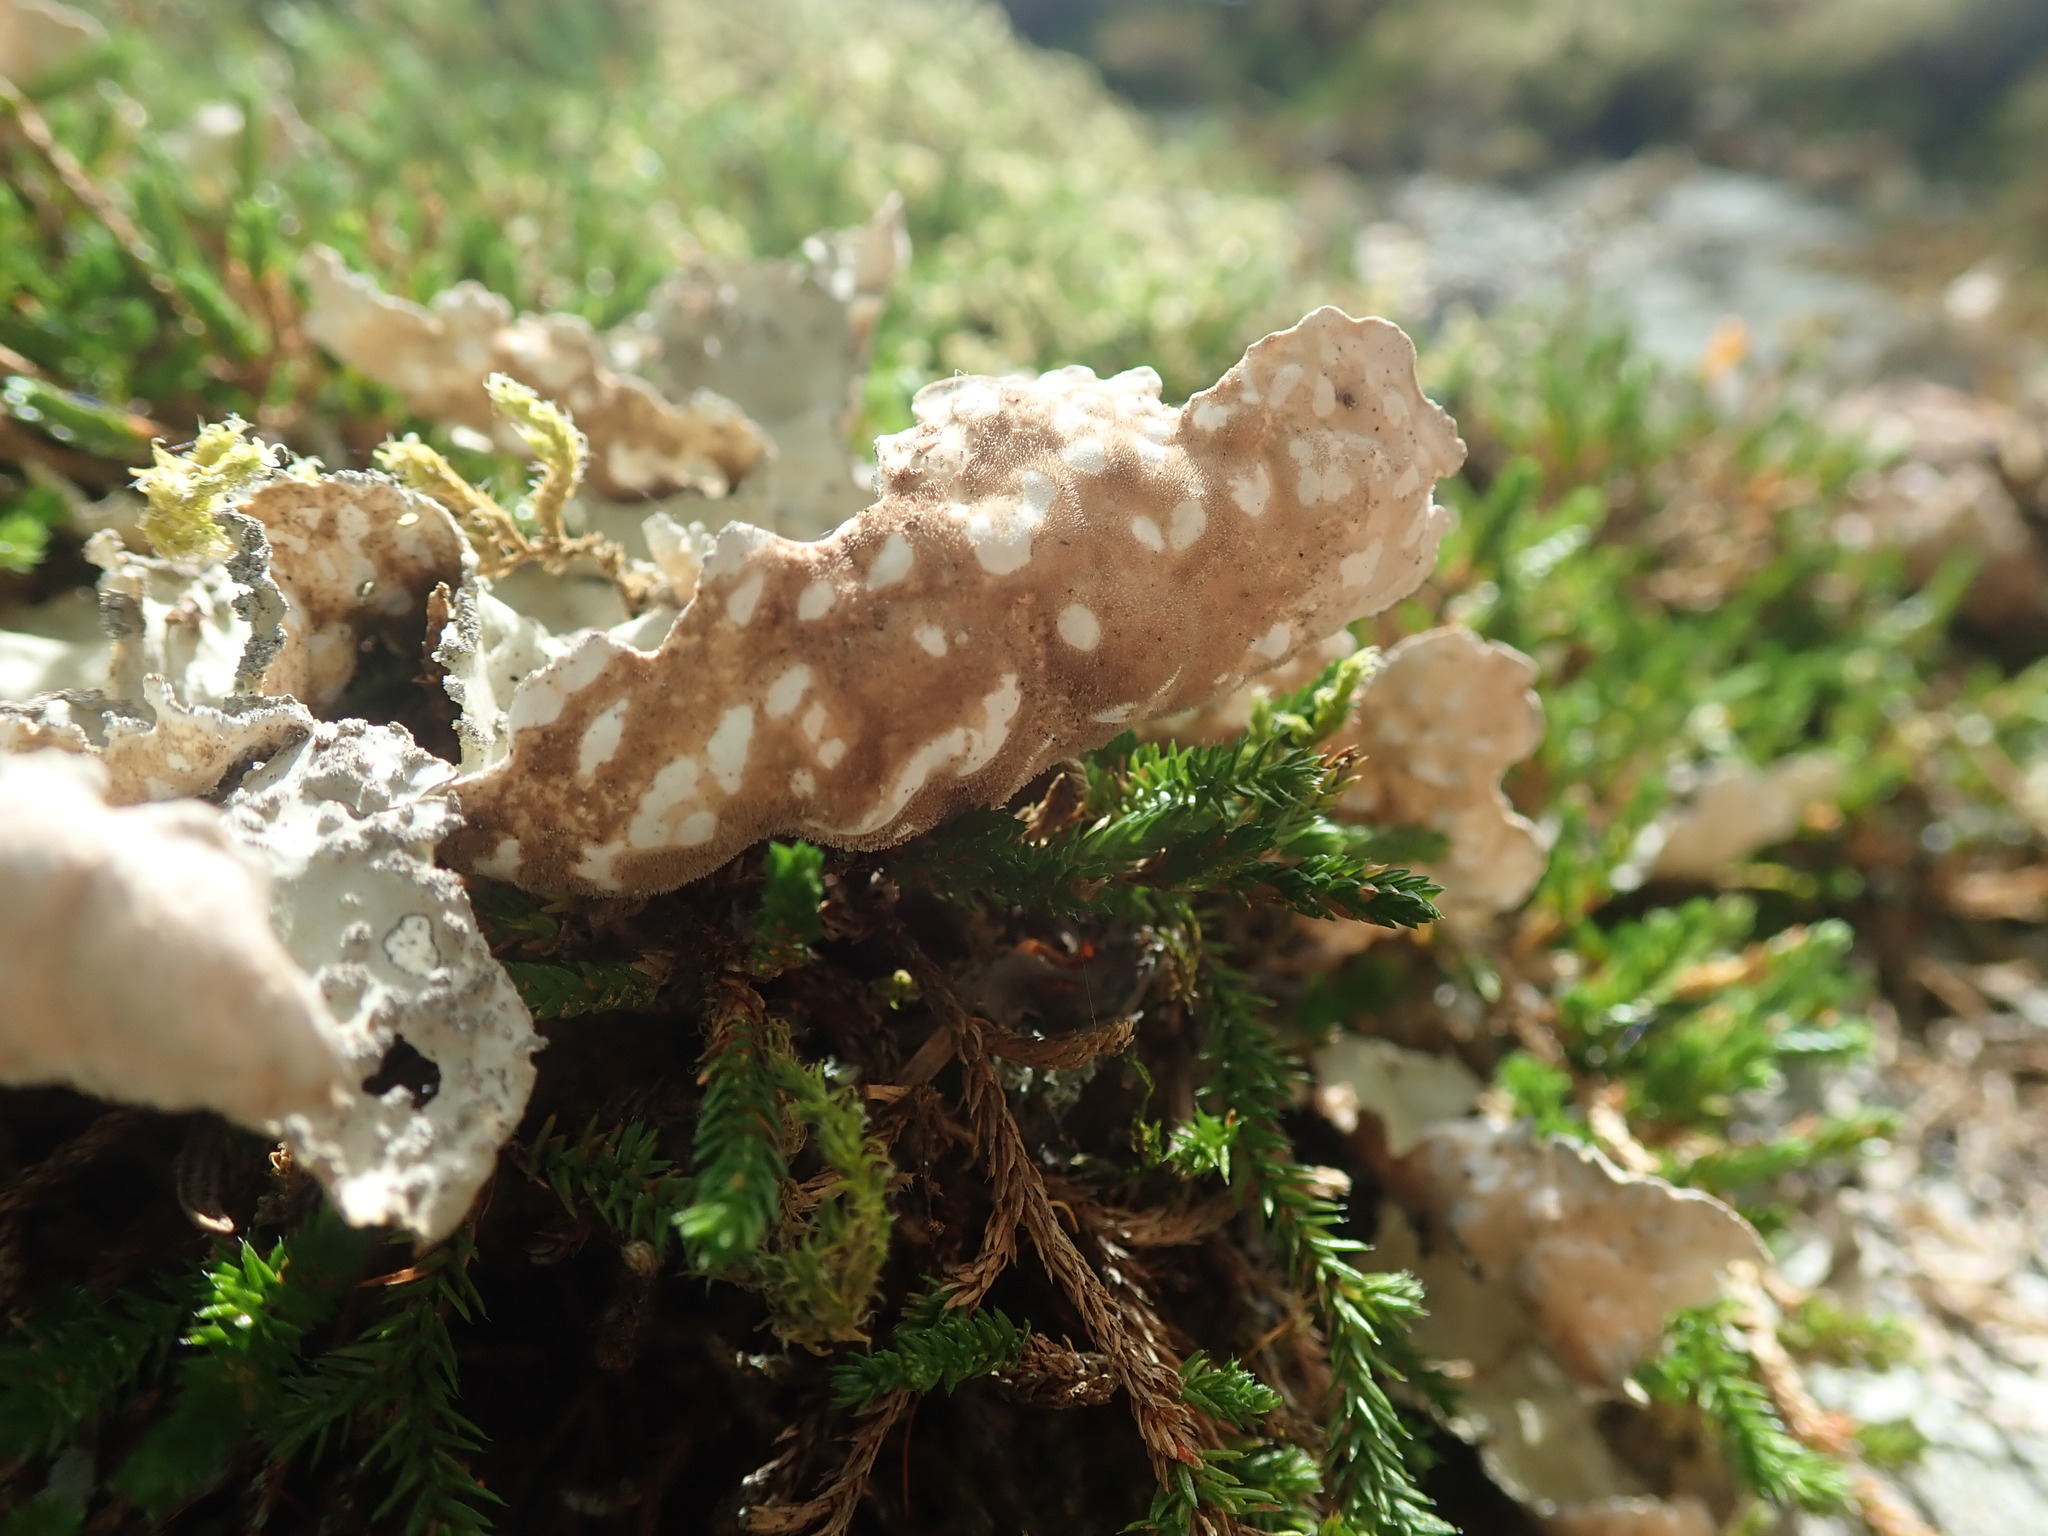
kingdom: Fungi
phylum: Ascomycota
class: Lecanoromycetes
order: Peltigerales
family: Lobariaceae
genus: Lobarina
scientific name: Lobarina scrobiculata
